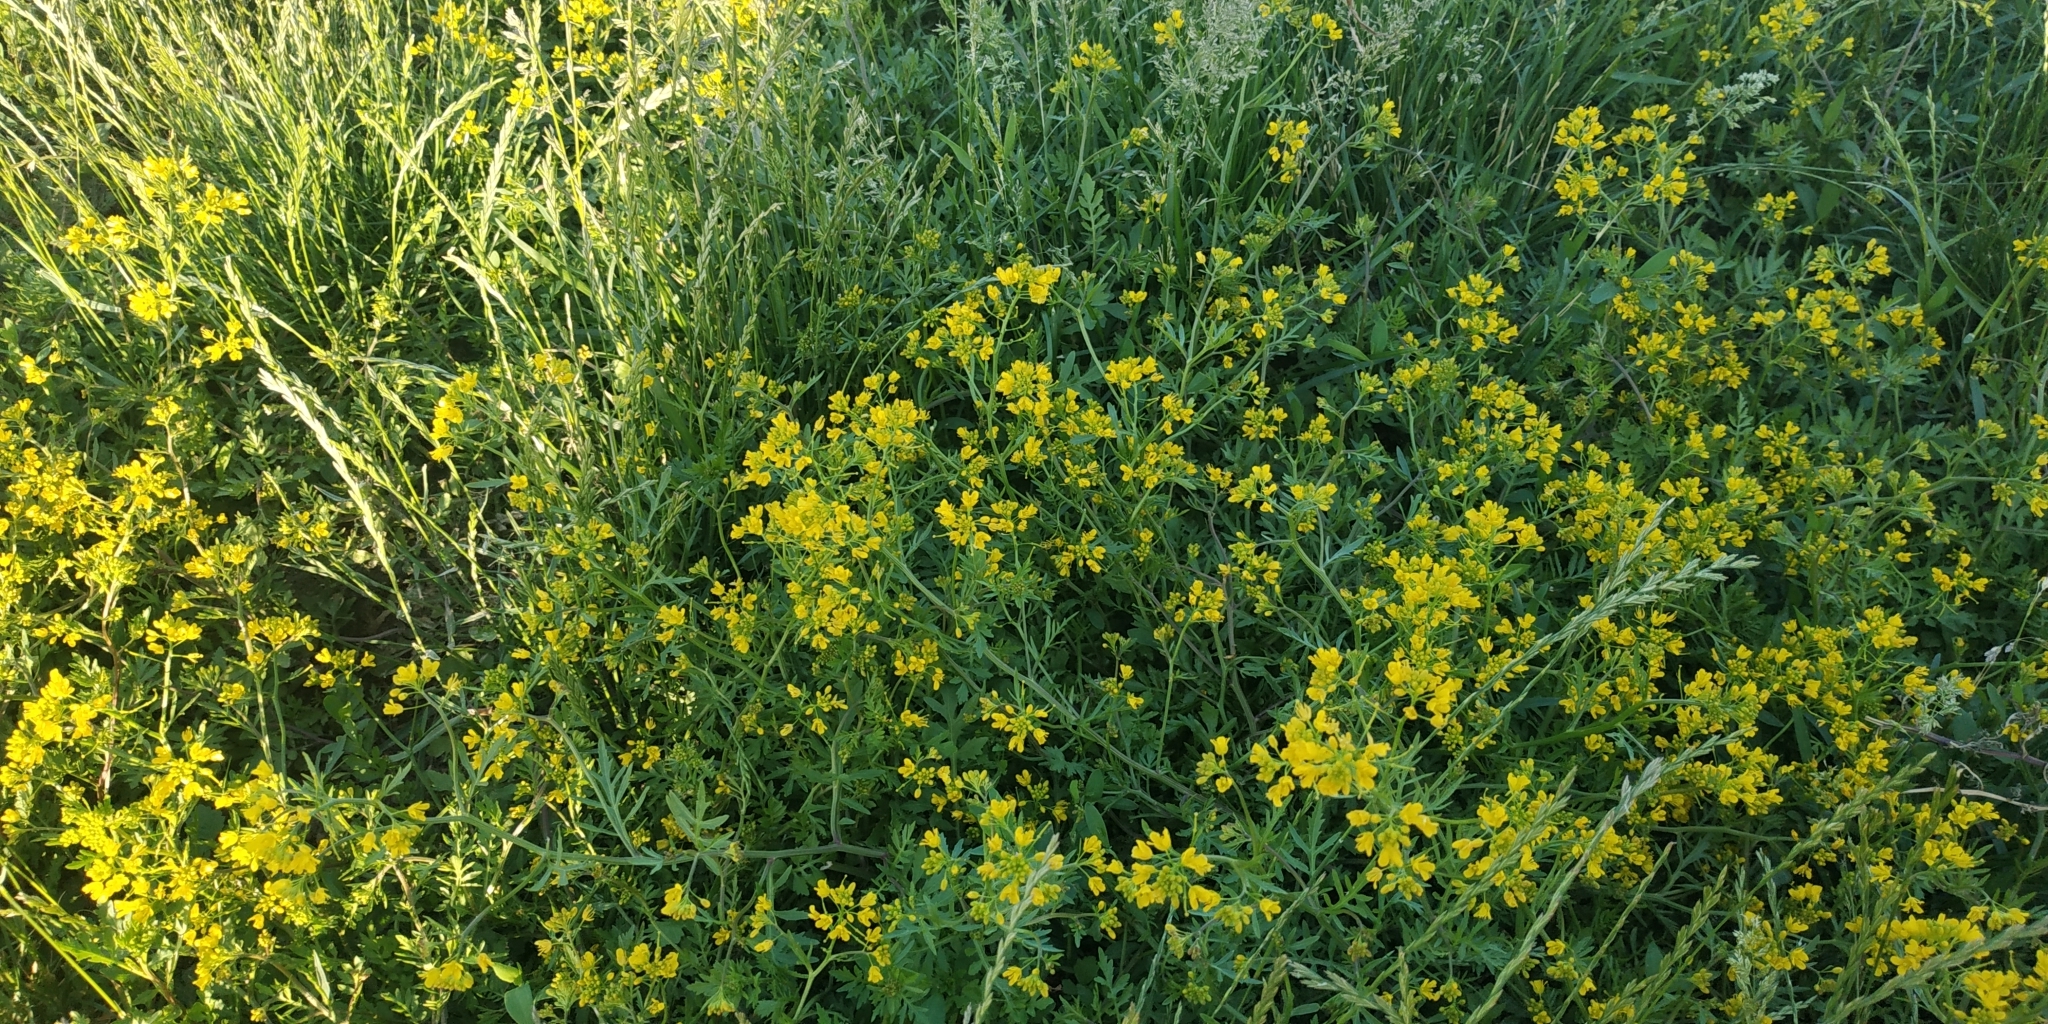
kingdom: Plantae
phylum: Tracheophyta
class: Magnoliopsida
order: Brassicales
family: Brassicaceae
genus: Rorippa
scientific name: Rorippa sylvestris
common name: Creeping yellowcress
